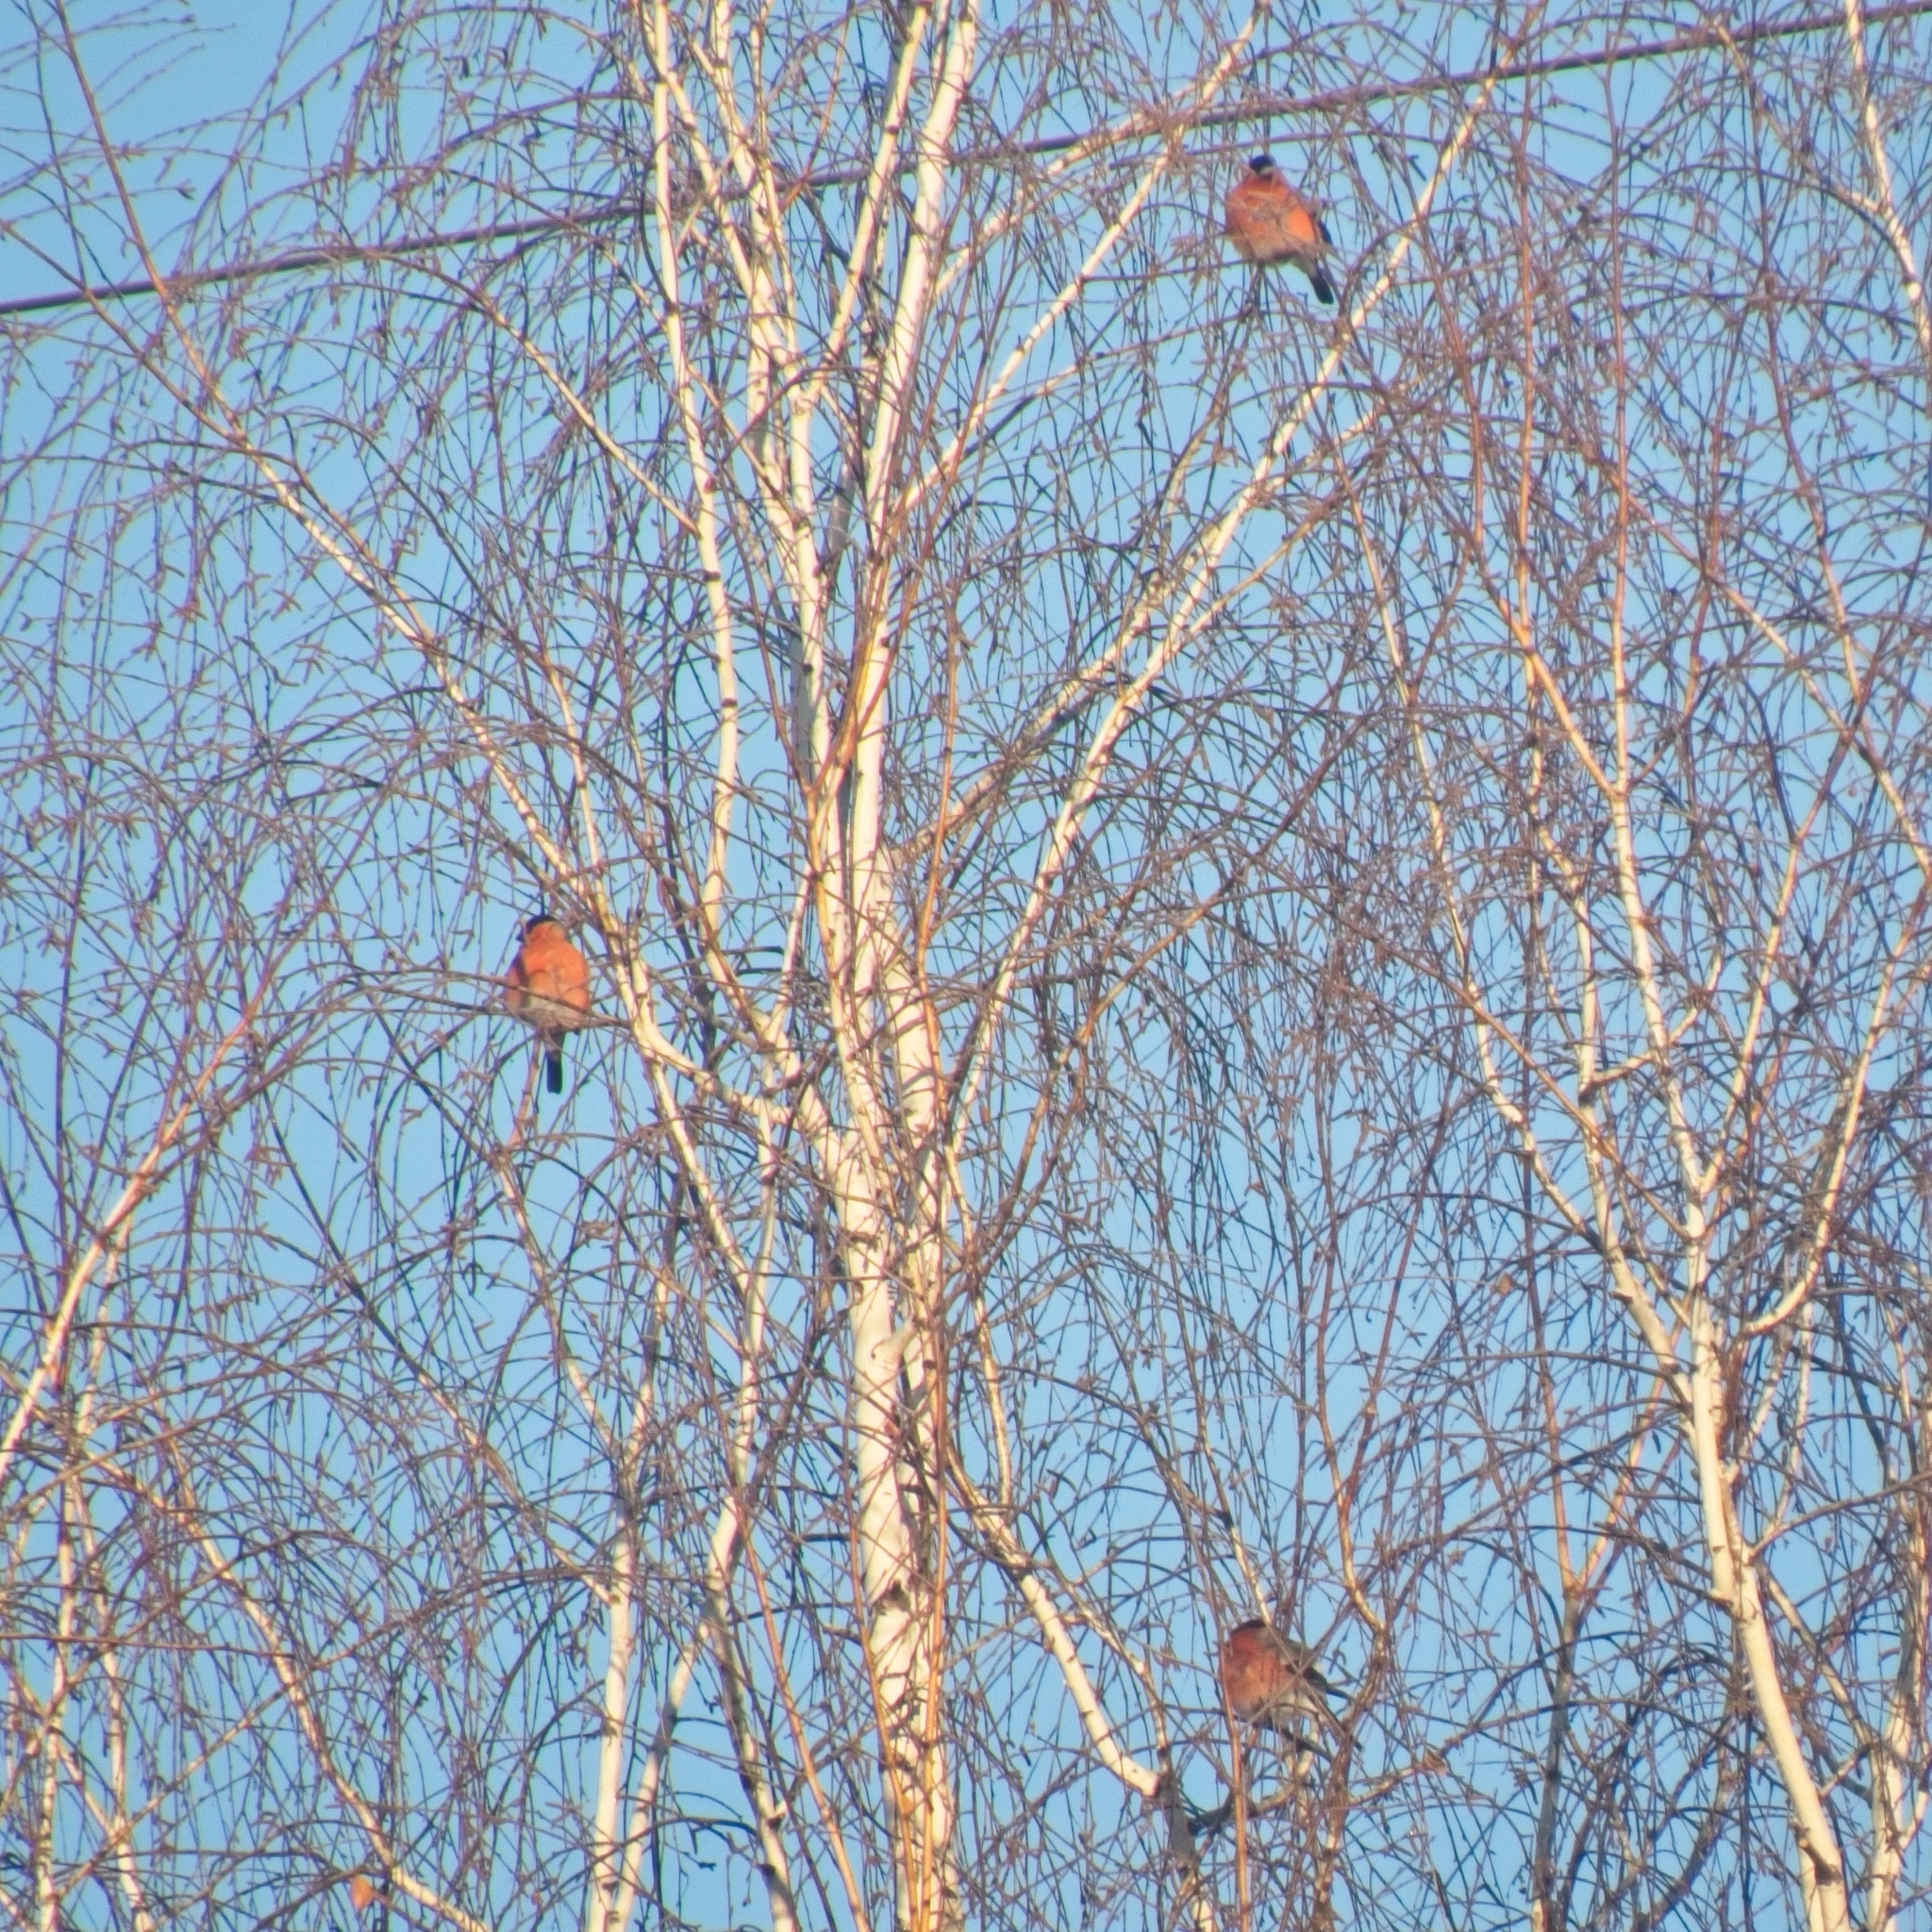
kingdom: Animalia
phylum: Chordata
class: Aves
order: Passeriformes
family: Fringillidae
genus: Pyrrhula
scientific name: Pyrrhula pyrrhula
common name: Eurasian bullfinch
